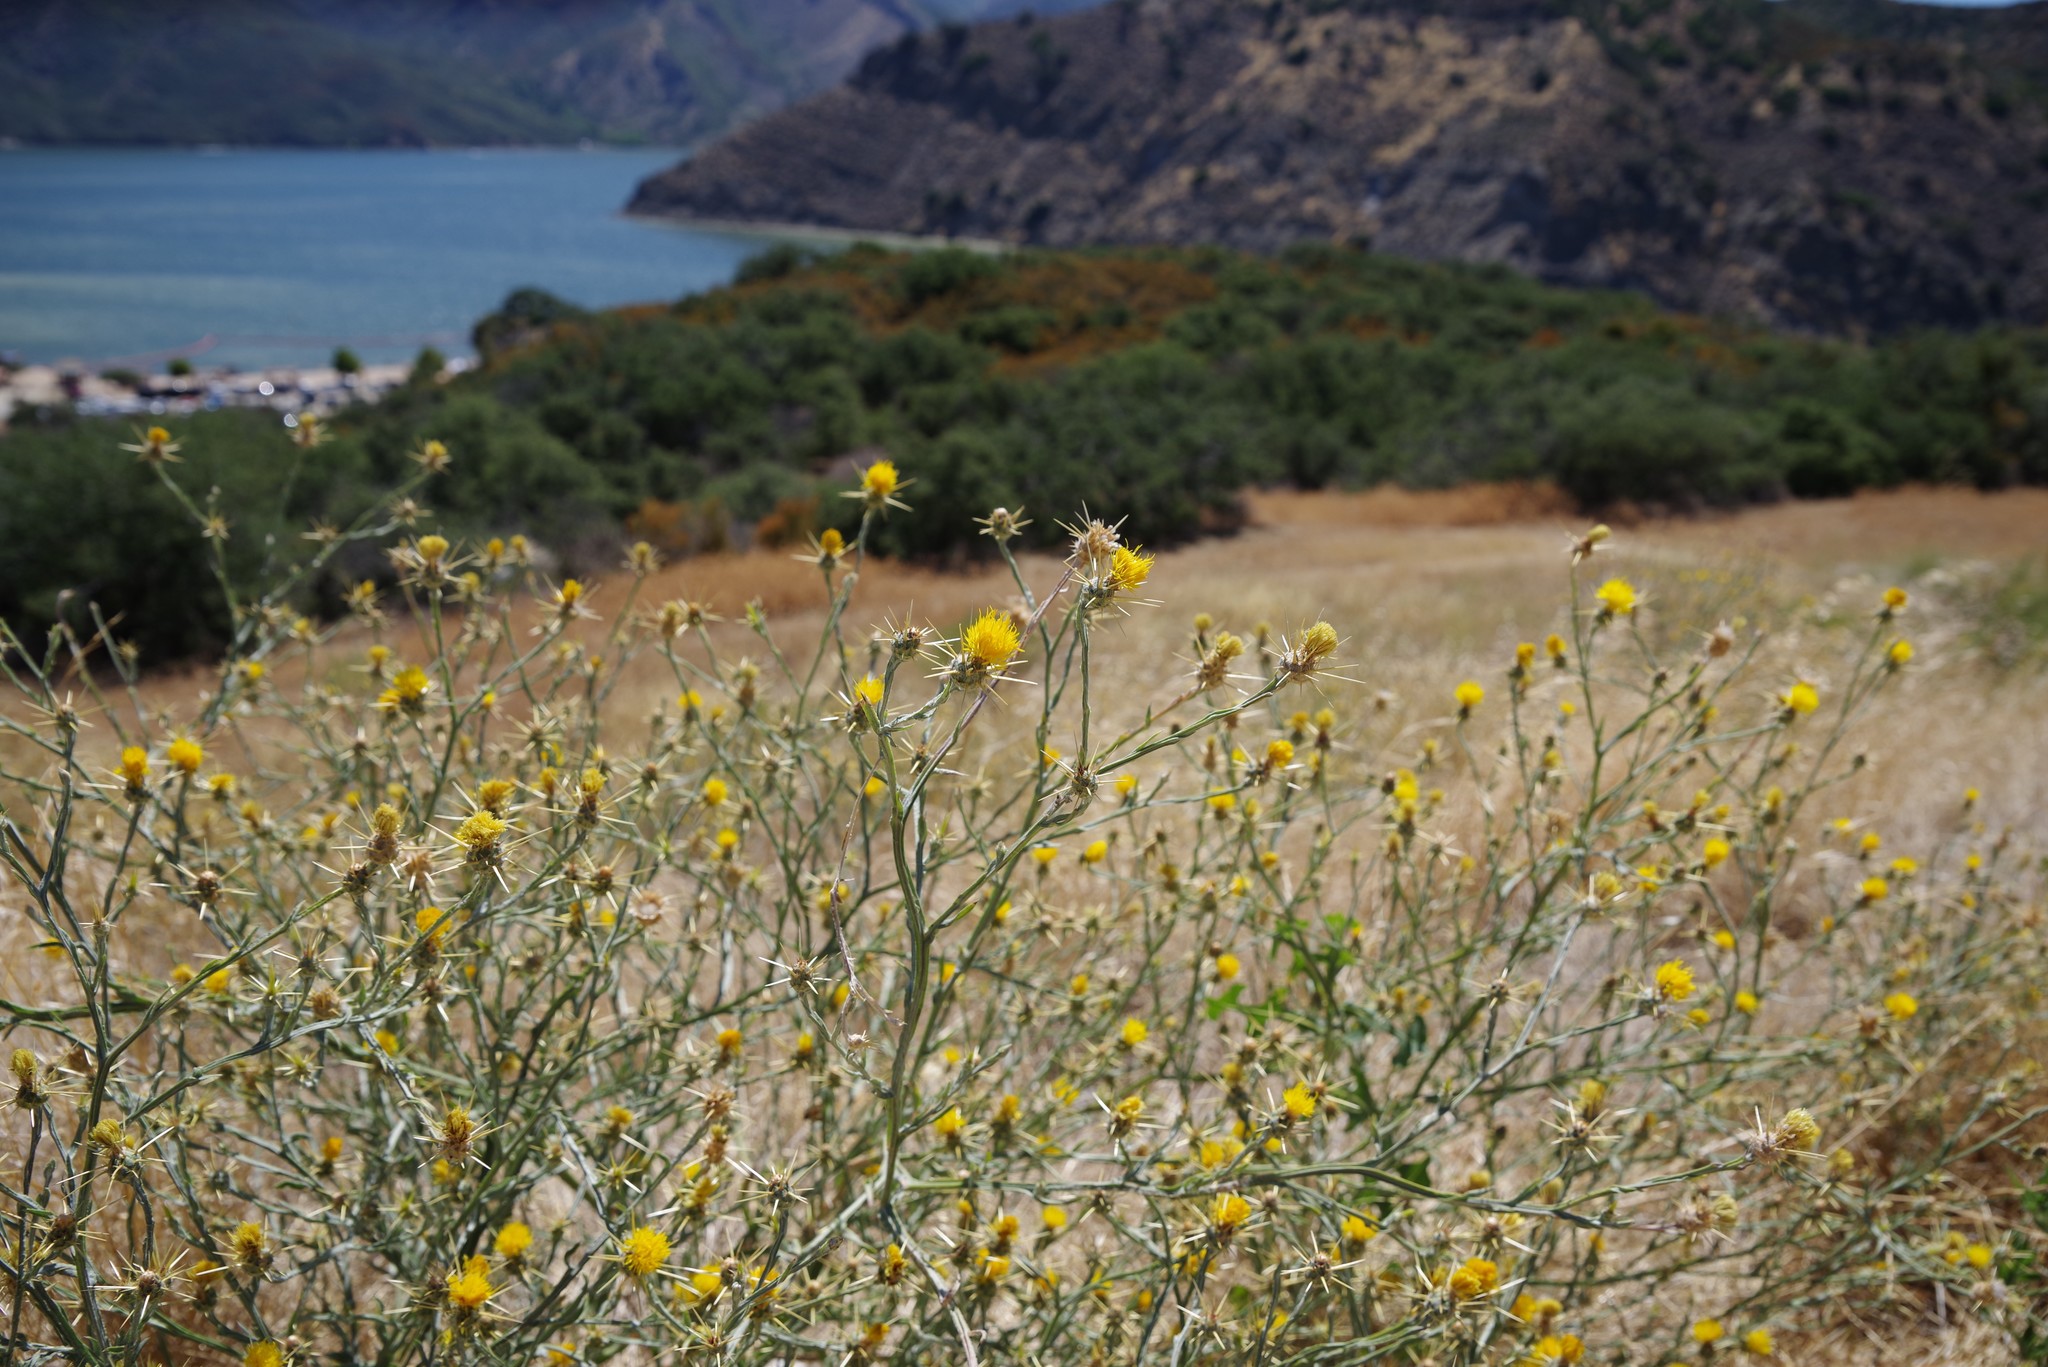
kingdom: Plantae
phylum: Tracheophyta
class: Magnoliopsida
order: Asterales
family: Asteraceae
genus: Centaurea
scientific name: Centaurea solstitialis
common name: Yellow star-thistle
